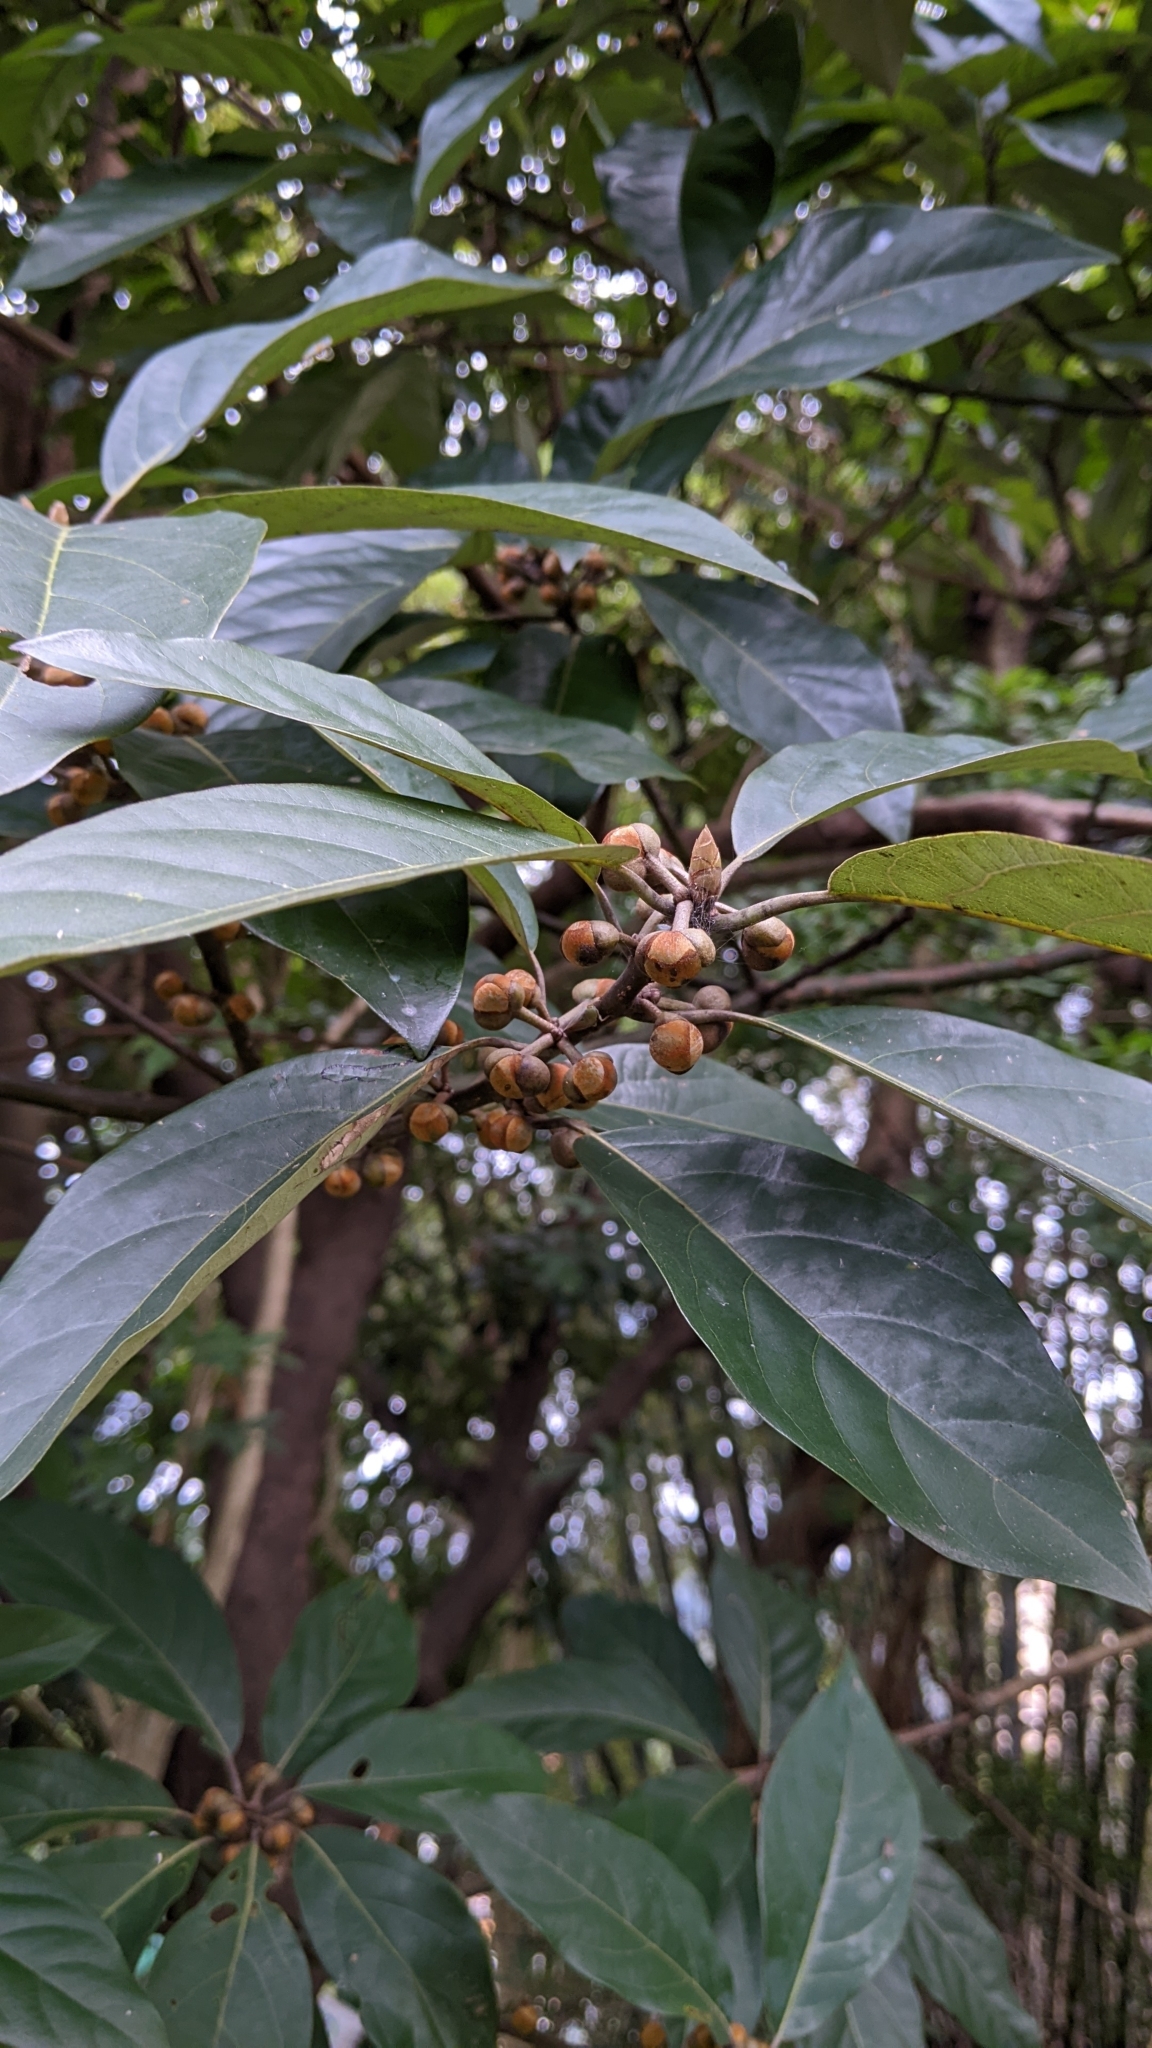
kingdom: Plantae
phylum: Tracheophyta
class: Magnoliopsida
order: Laurales
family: Lauraceae
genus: Lindera
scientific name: Lindera megaphylla
